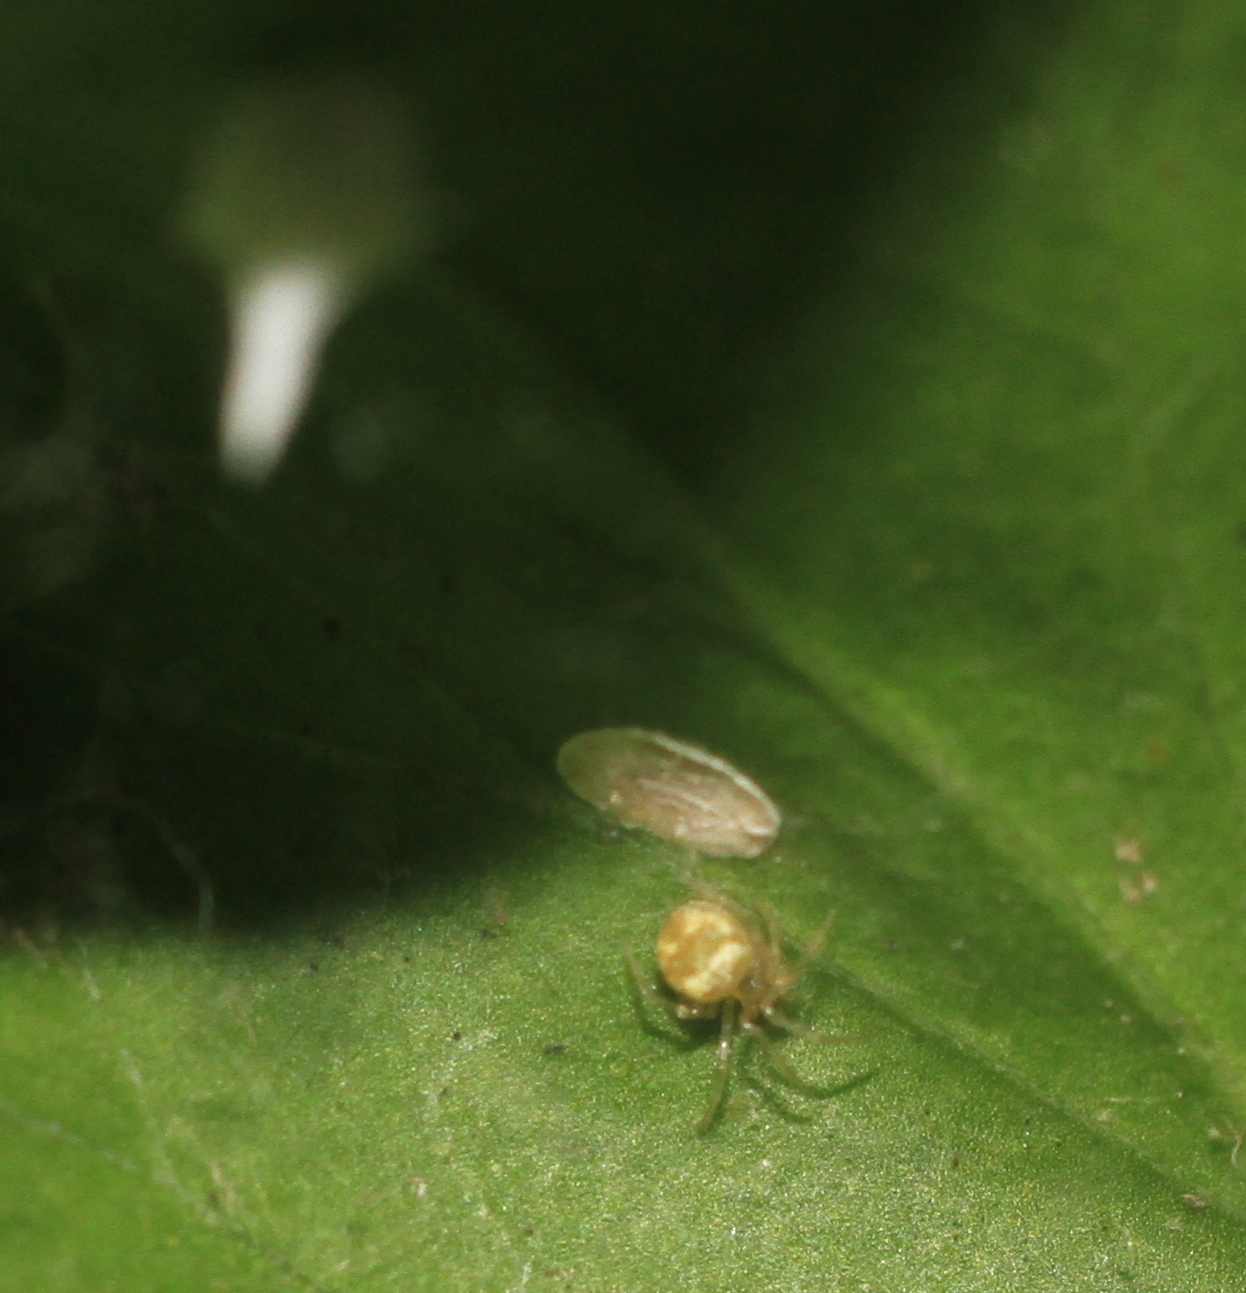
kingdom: Animalia
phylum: Arthropoda
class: Arachnida
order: Araneae
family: Theridiidae
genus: Paidiscura
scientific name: Paidiscura pallens
